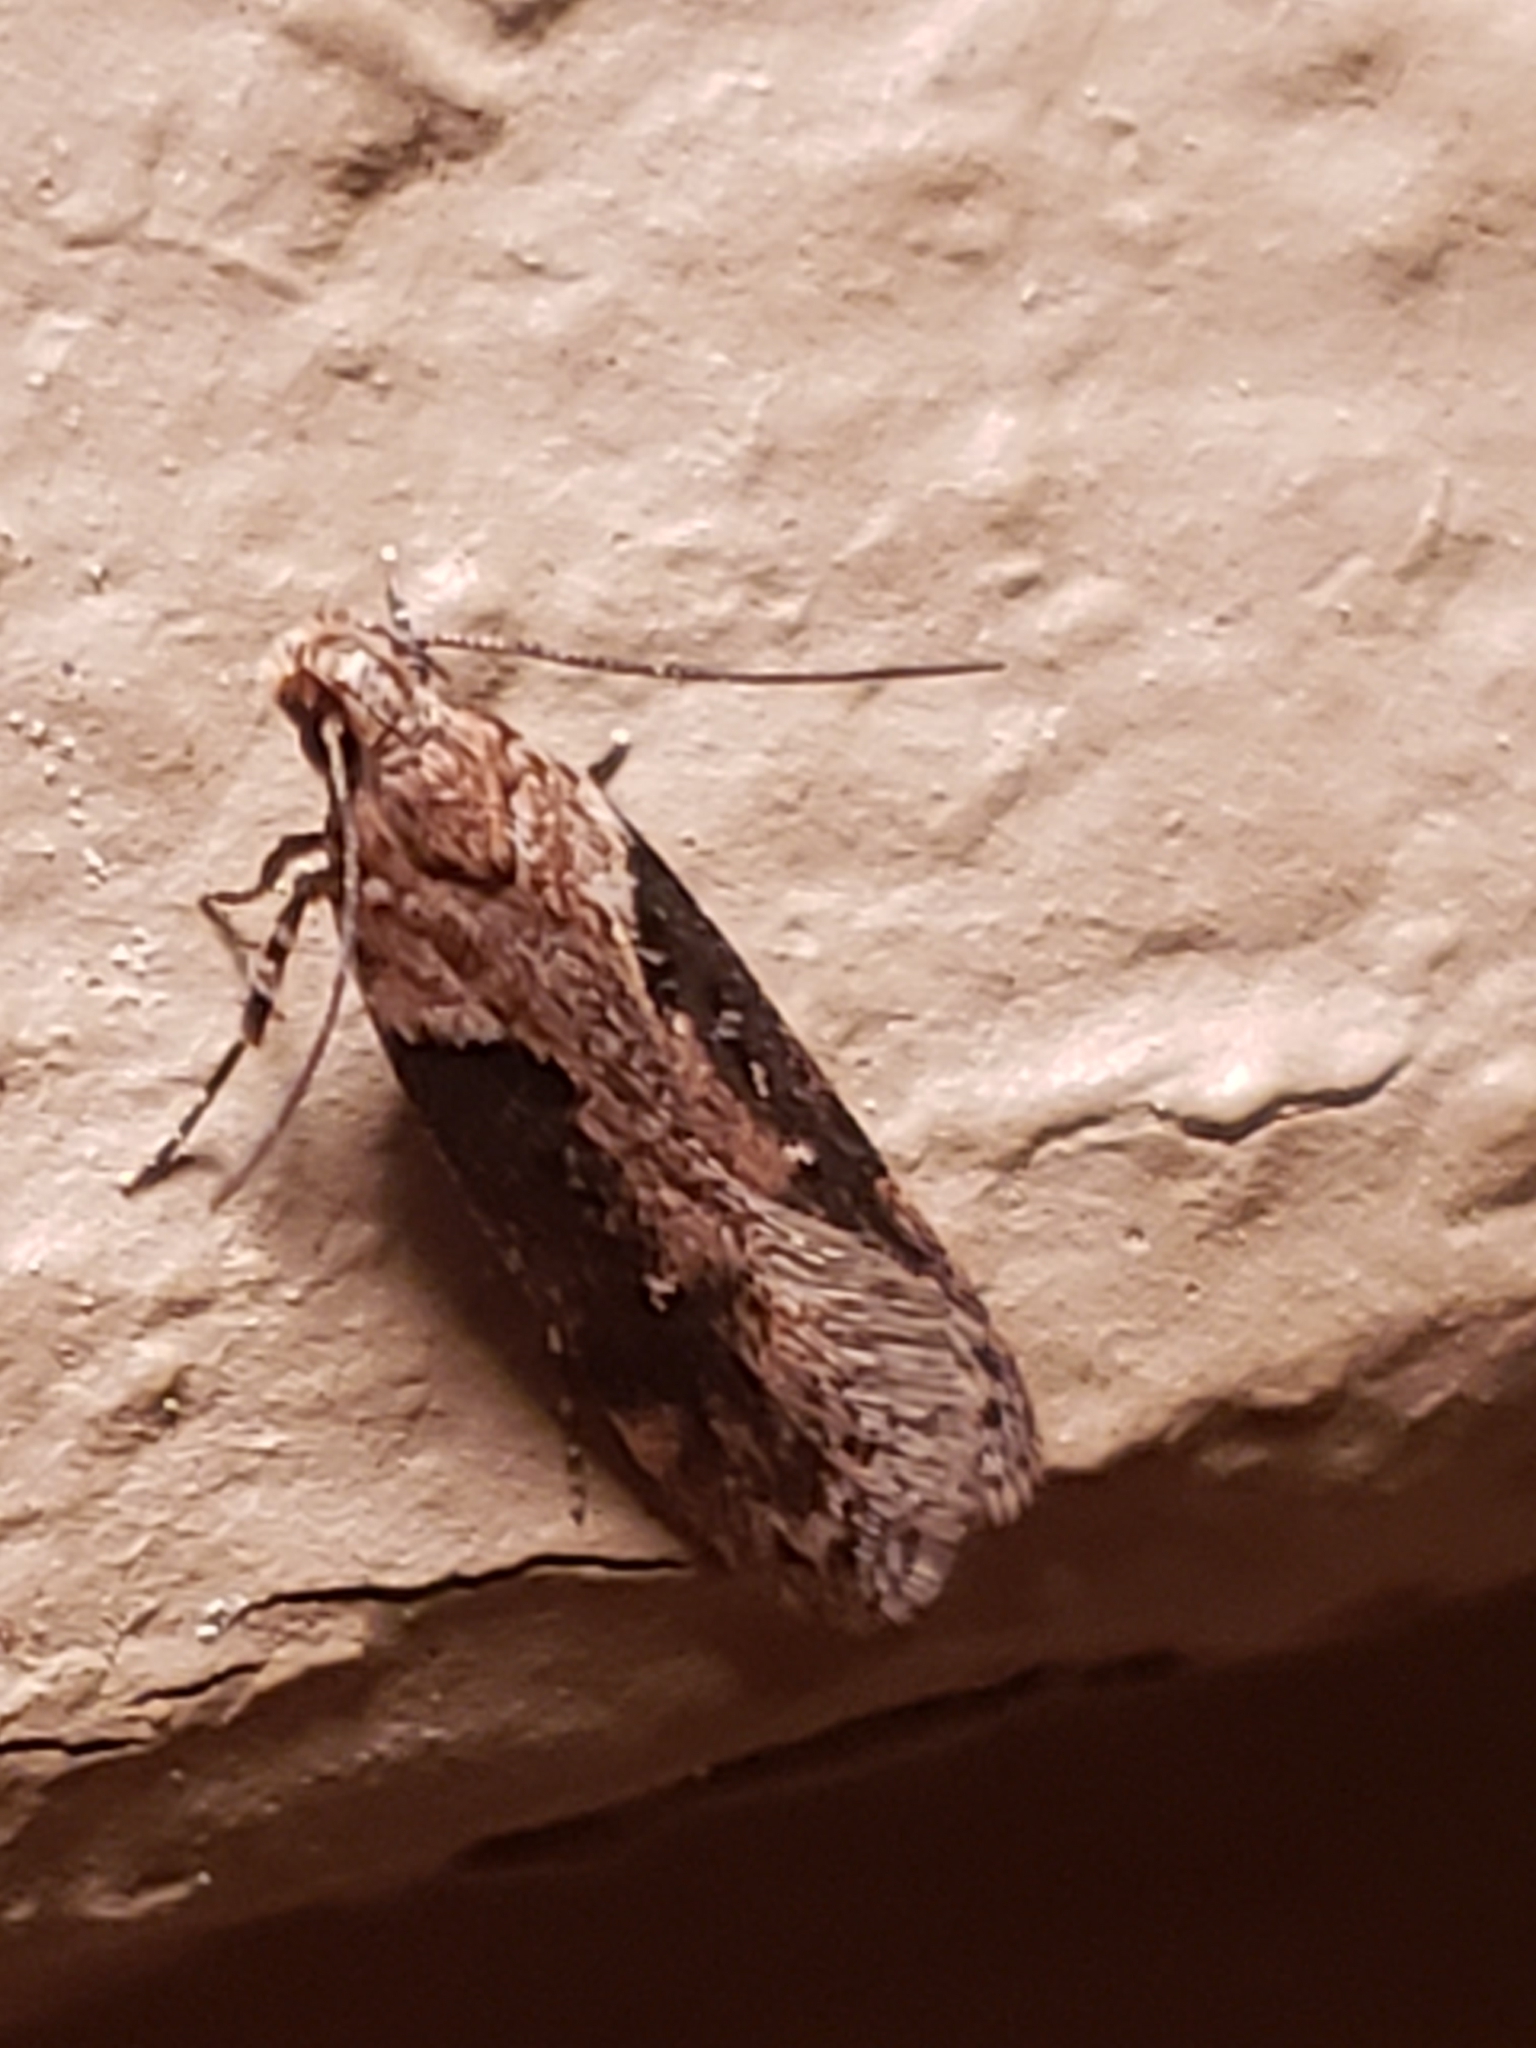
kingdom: Animalia
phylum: Arthropoda
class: Insecta
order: Lepidoptera
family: Gelechiidae
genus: Chionodes
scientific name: Chionodes mediofuscella
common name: Black-smudged chionodes moth
